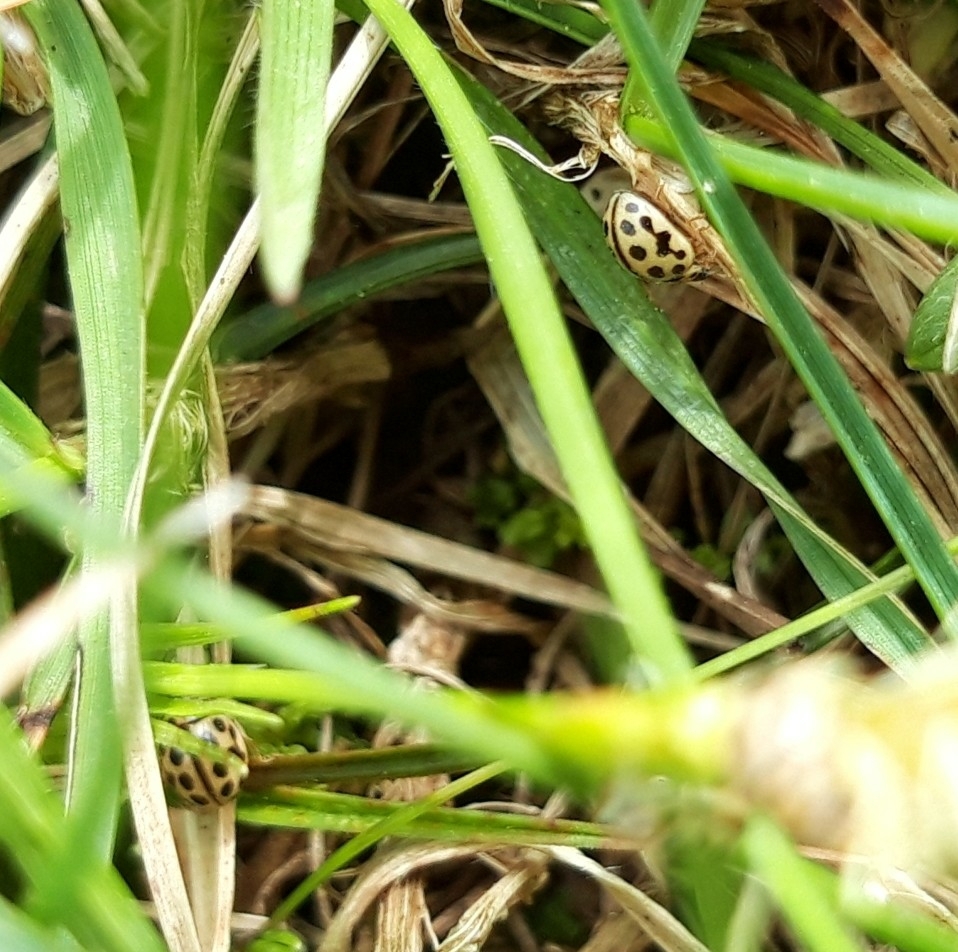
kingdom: Animalia
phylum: Arthropoda
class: Insecta
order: Coleoptera
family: Coccinellidae
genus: Tytthaspis
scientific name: Tytthaspis sedecimpunctata
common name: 16-spot ladybird
